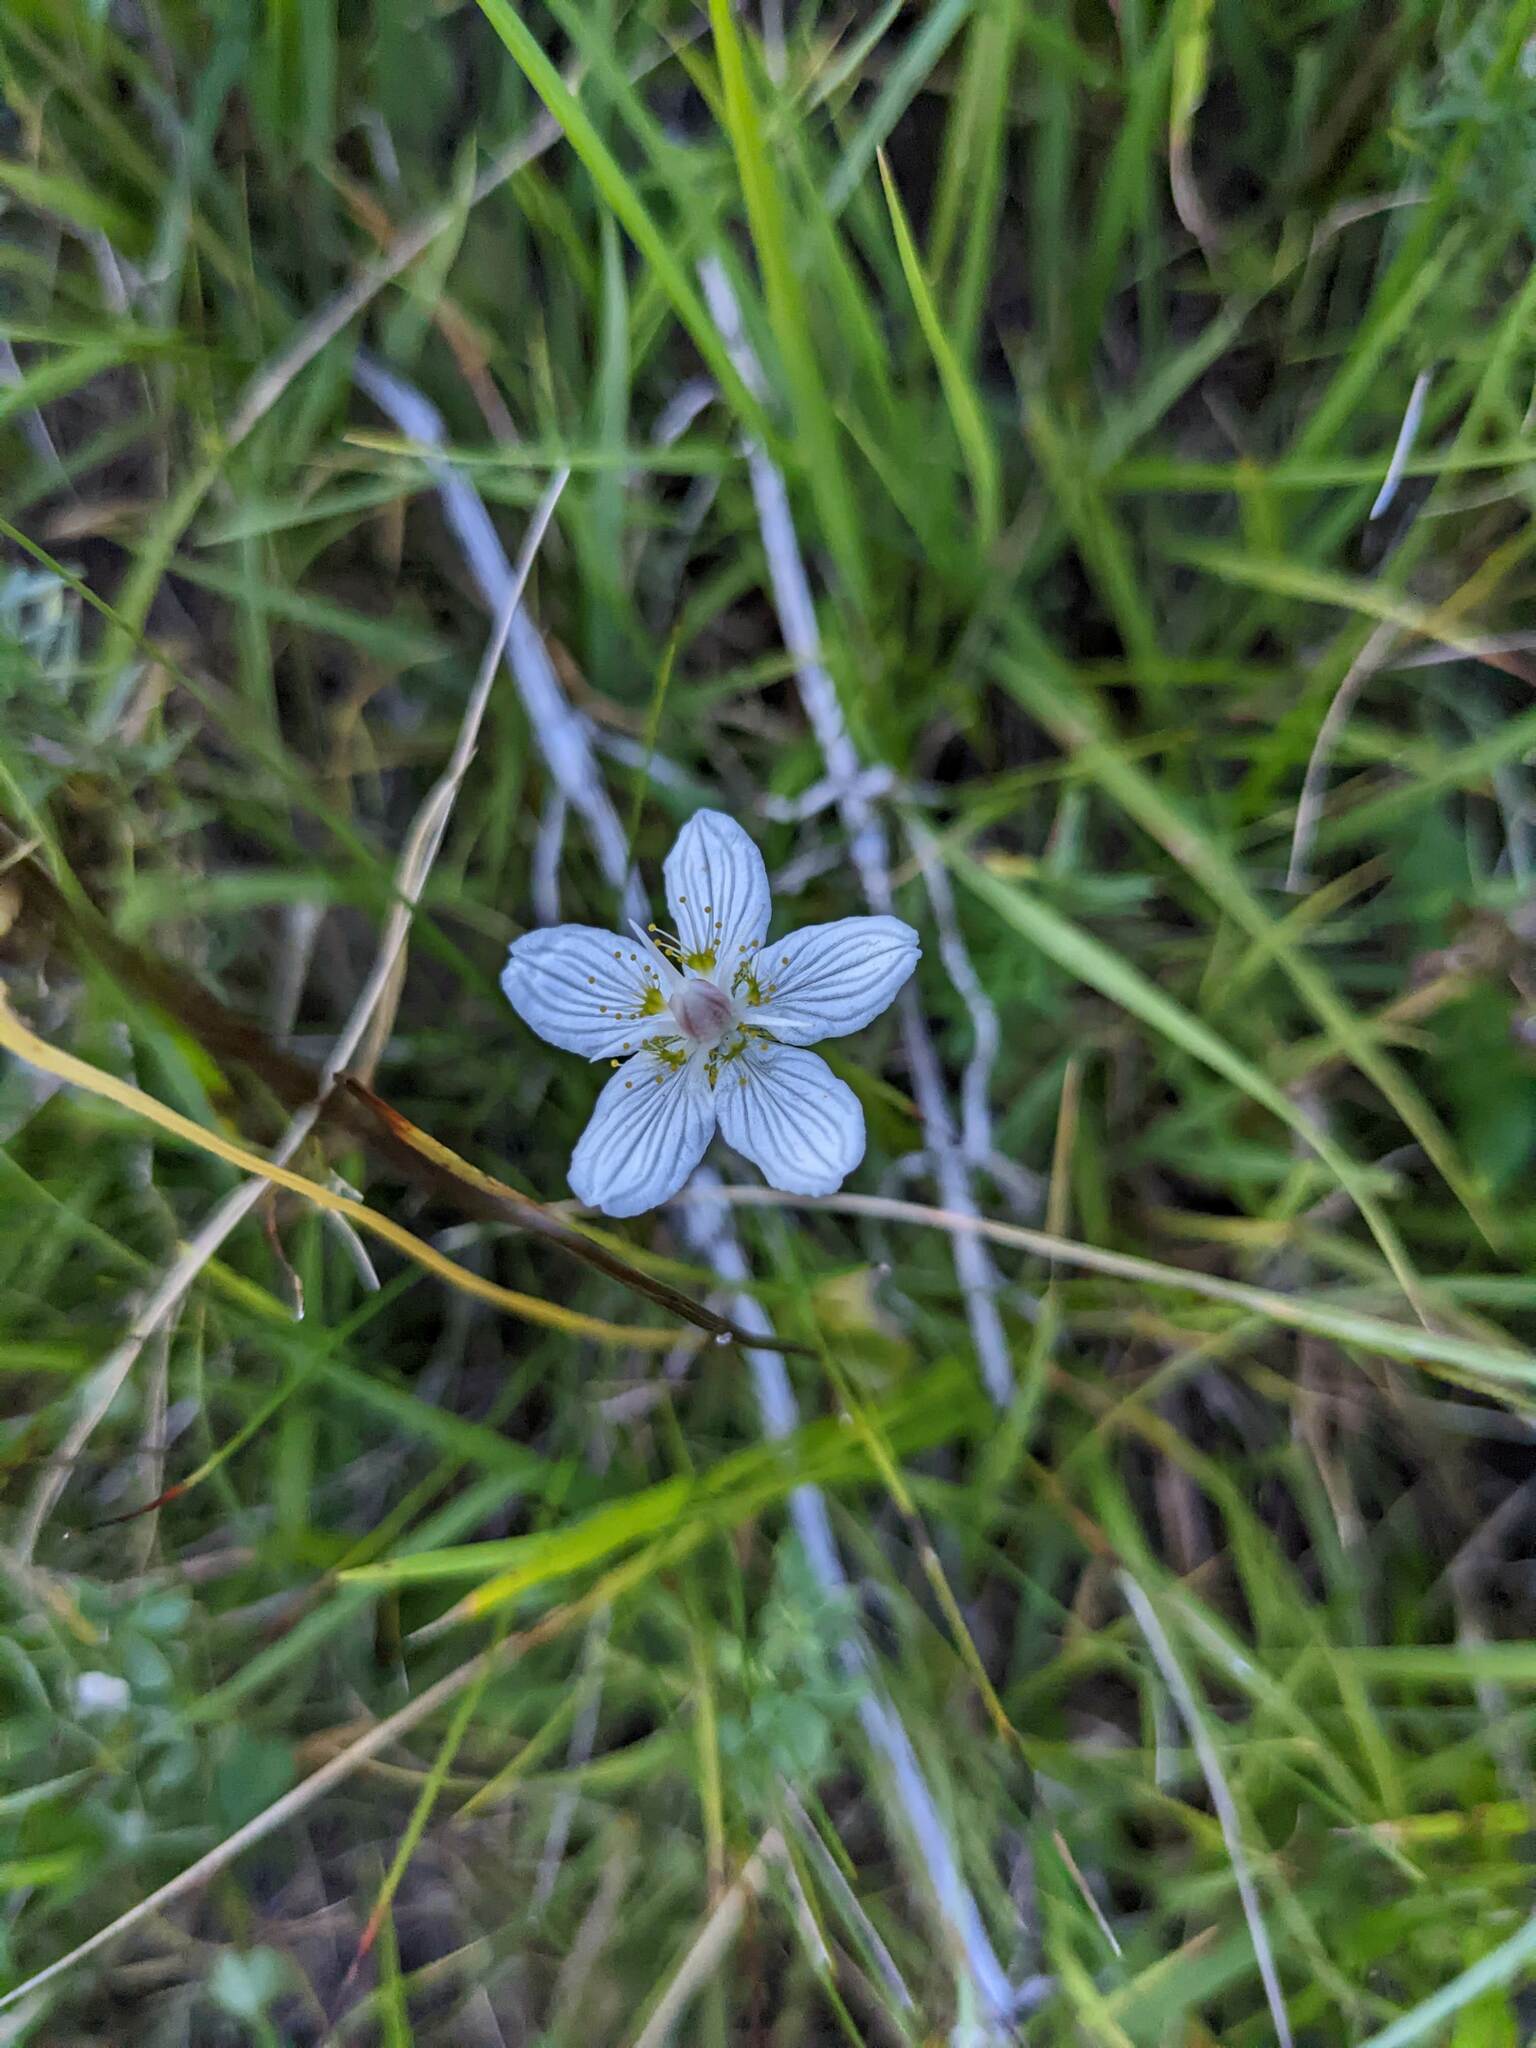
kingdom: Plantae
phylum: Tracheophyta
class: Magnoliopsida
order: Celastrales
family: Parnassiaceae
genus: Parnassia
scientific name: Parnassia palustris
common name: Grass-of-parnassus
